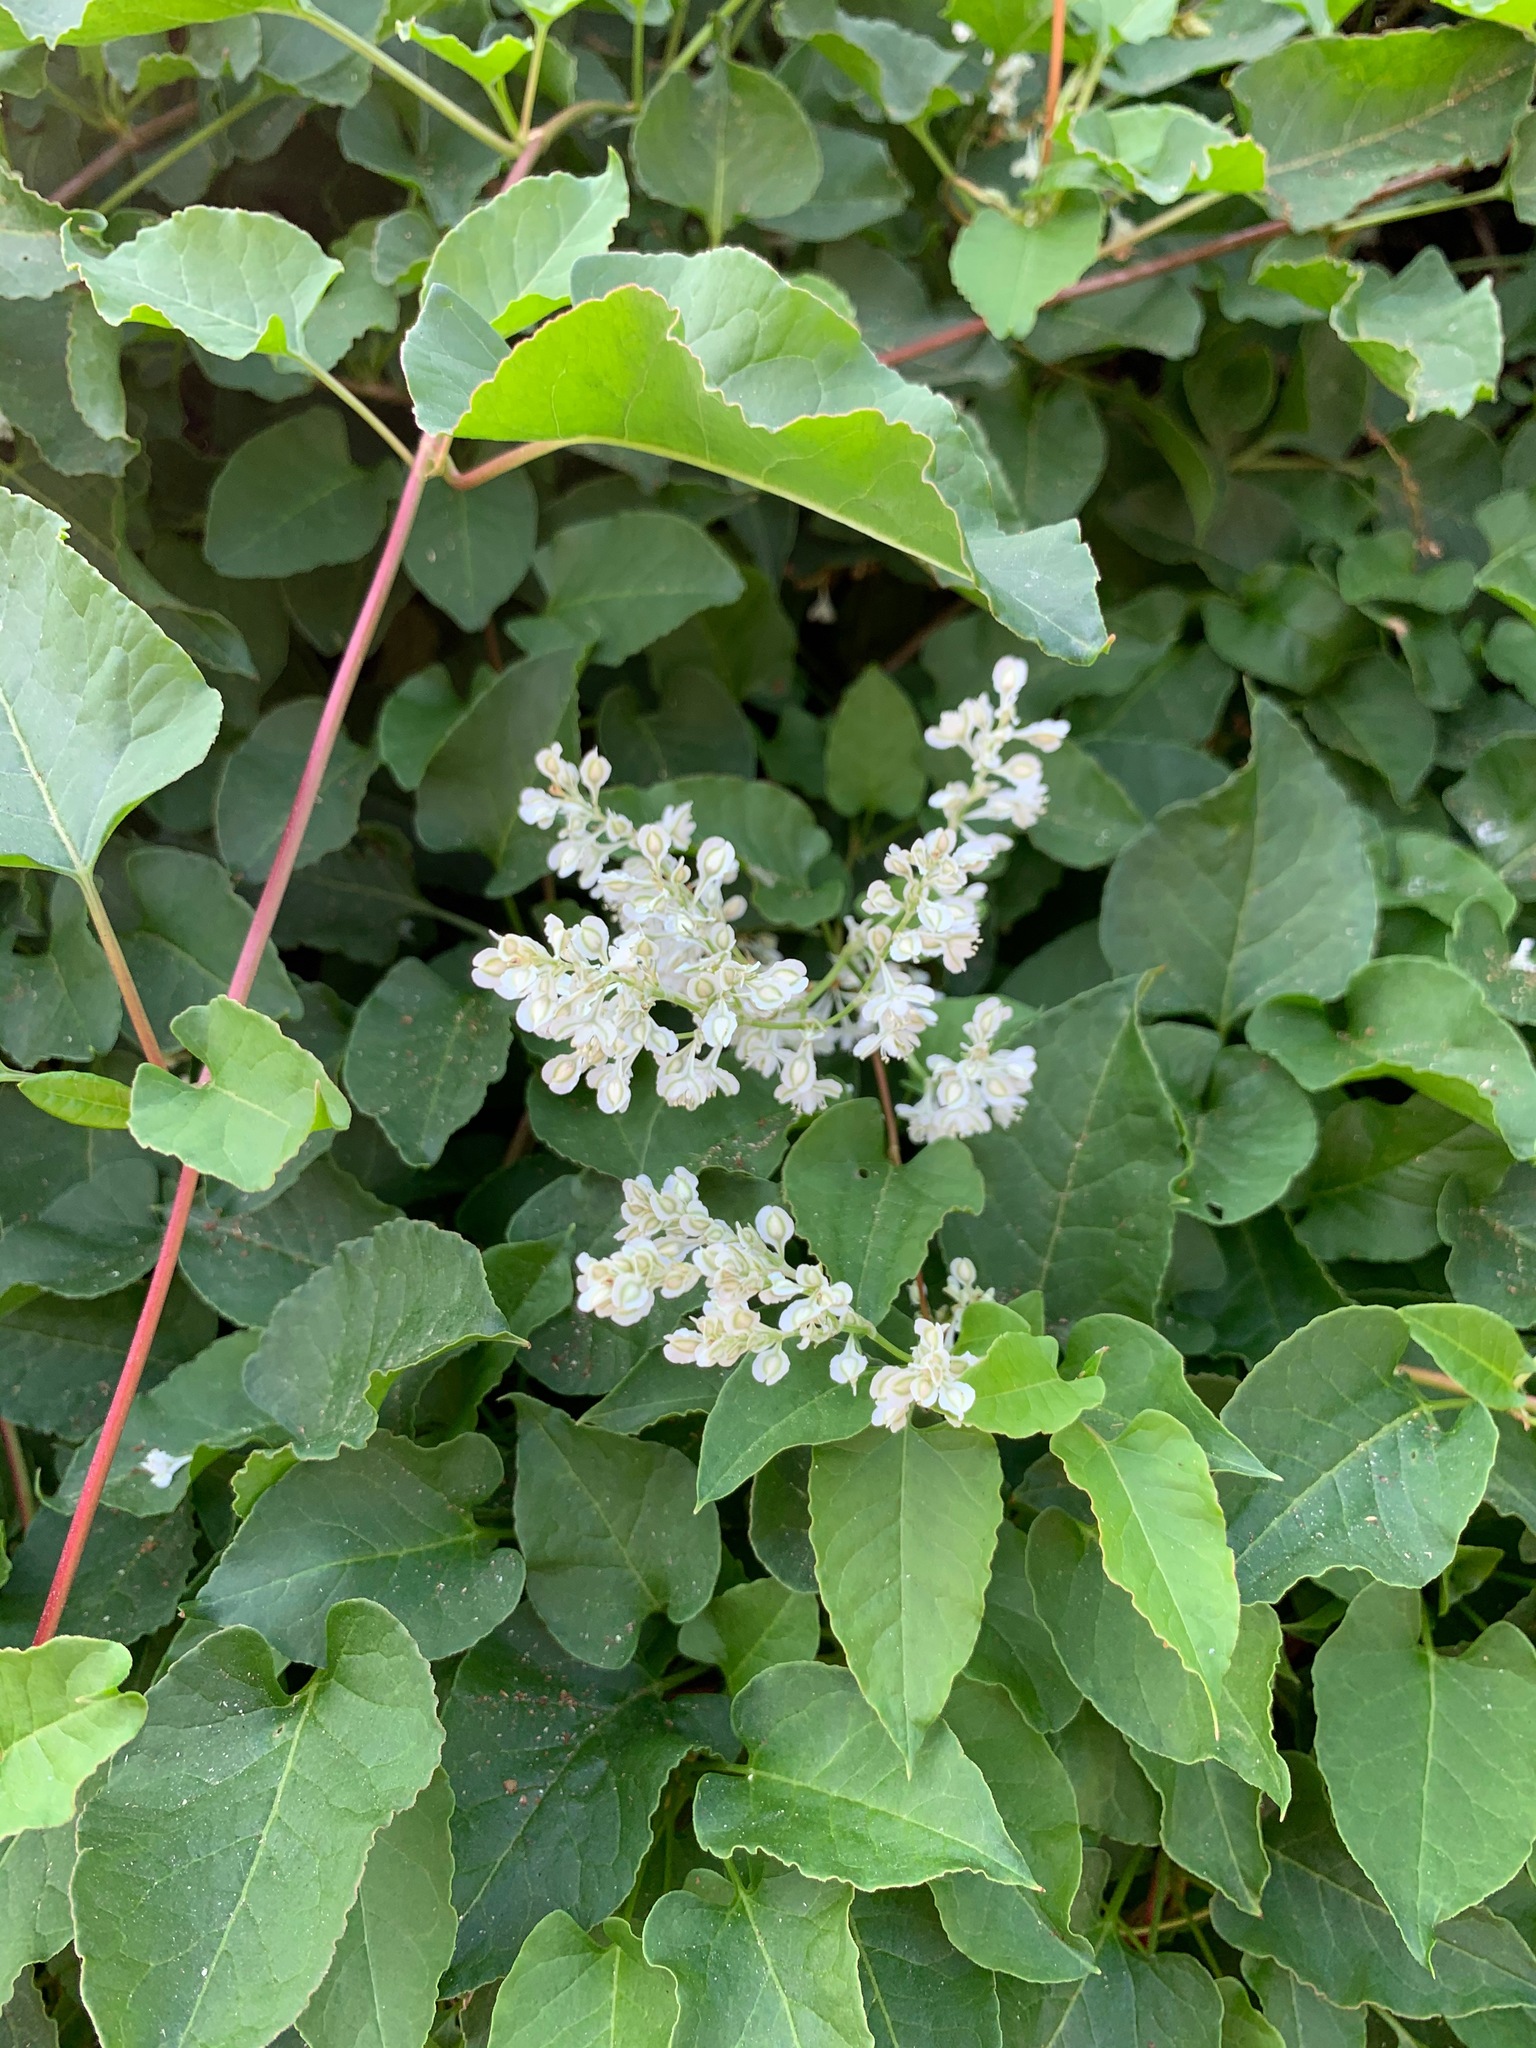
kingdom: Plantae
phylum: Tracheophyta
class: Magnoliopsida
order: Caryophyllales
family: Polygonaceae
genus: Fallopia
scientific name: Fallopia baldschuanica
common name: Russian-vine
